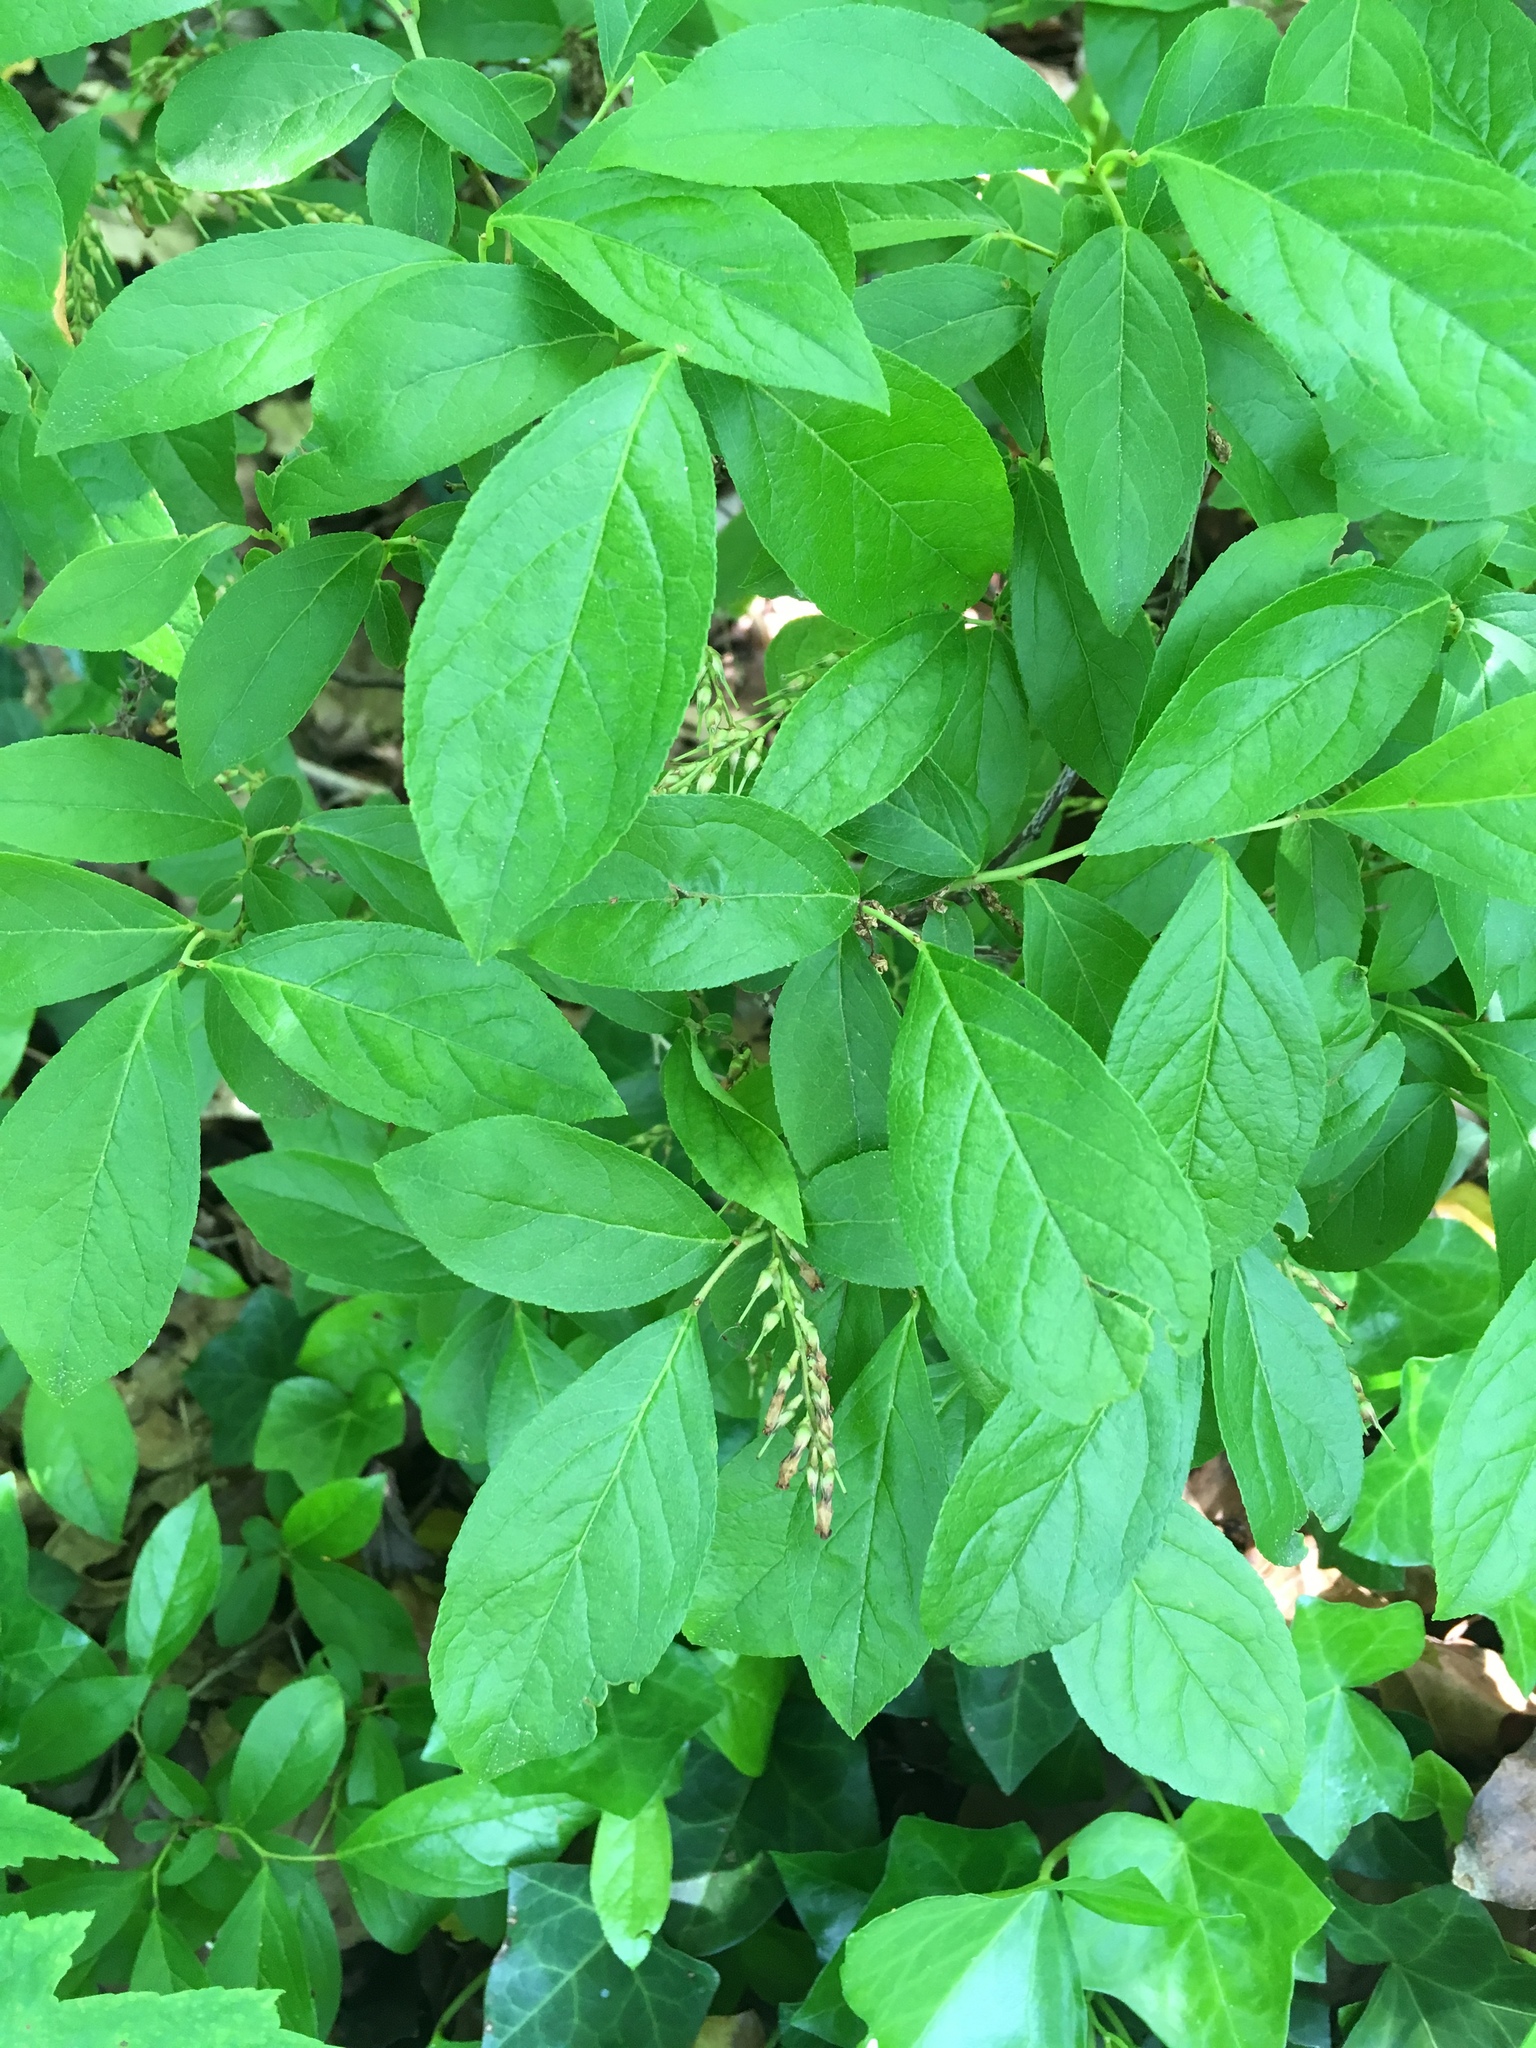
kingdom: Plantae
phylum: Tracheophyta
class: Magnoliopsida
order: Ericales
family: Ericaceae
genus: Eubotrys
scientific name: Eubotrys racemosa
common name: Fetterbush
